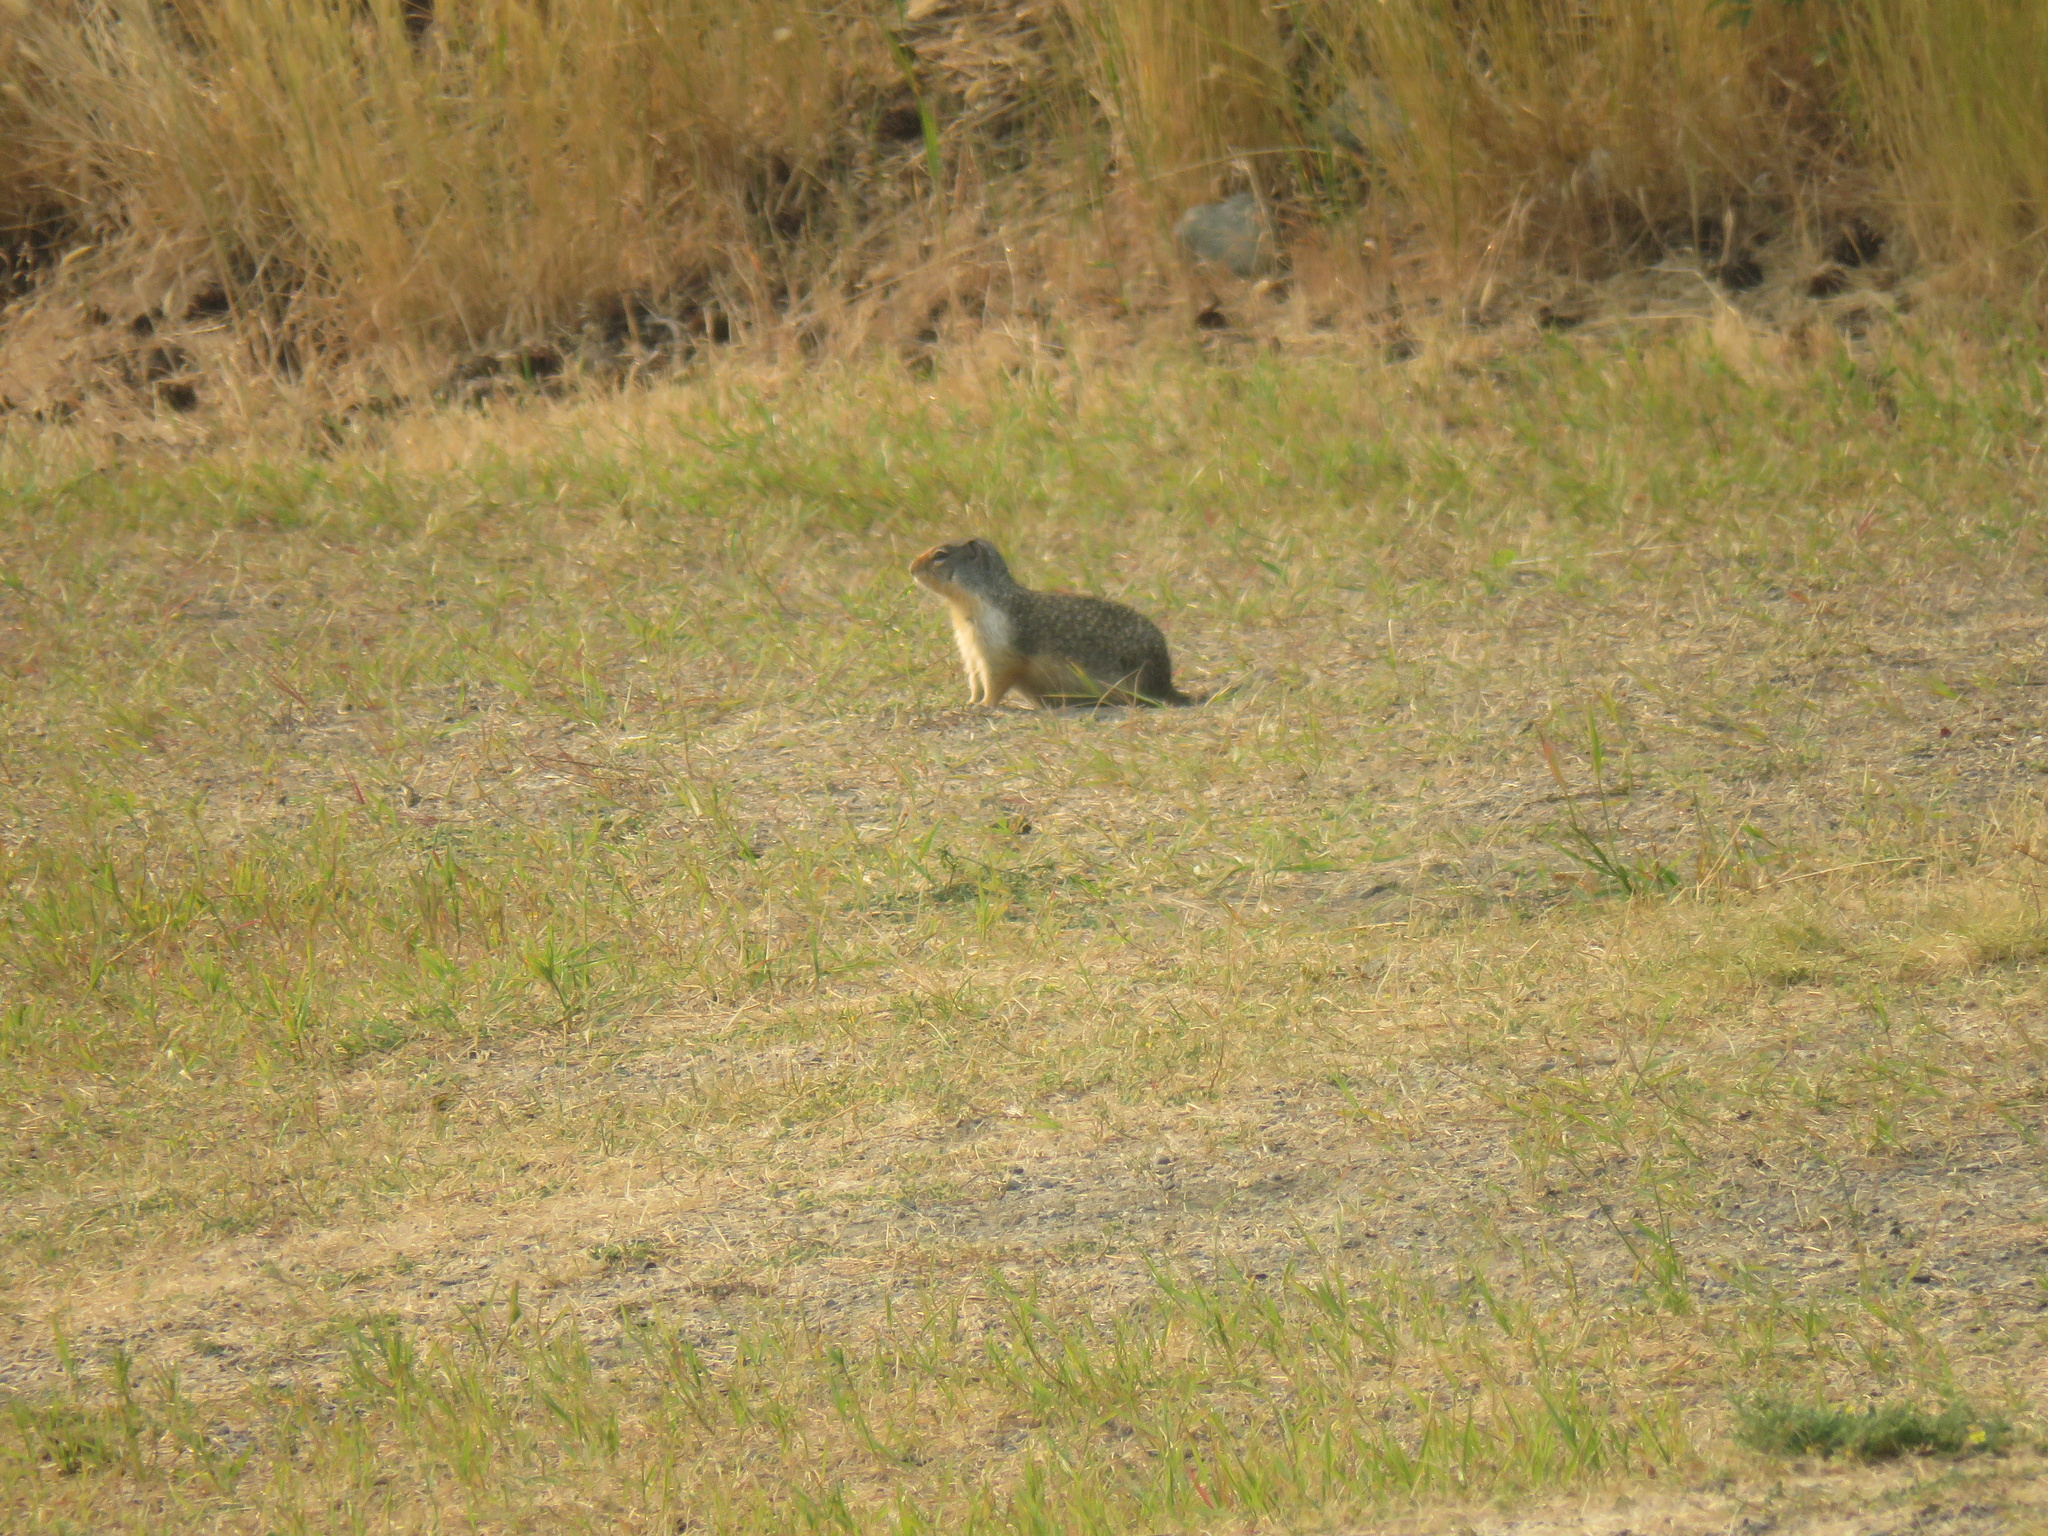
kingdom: Animalia
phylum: Chordata
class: Mammalia
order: Rodentia
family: Sciuridae
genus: Urocitellus
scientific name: Urocitellus columbianus
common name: Columbian ground squirrel
